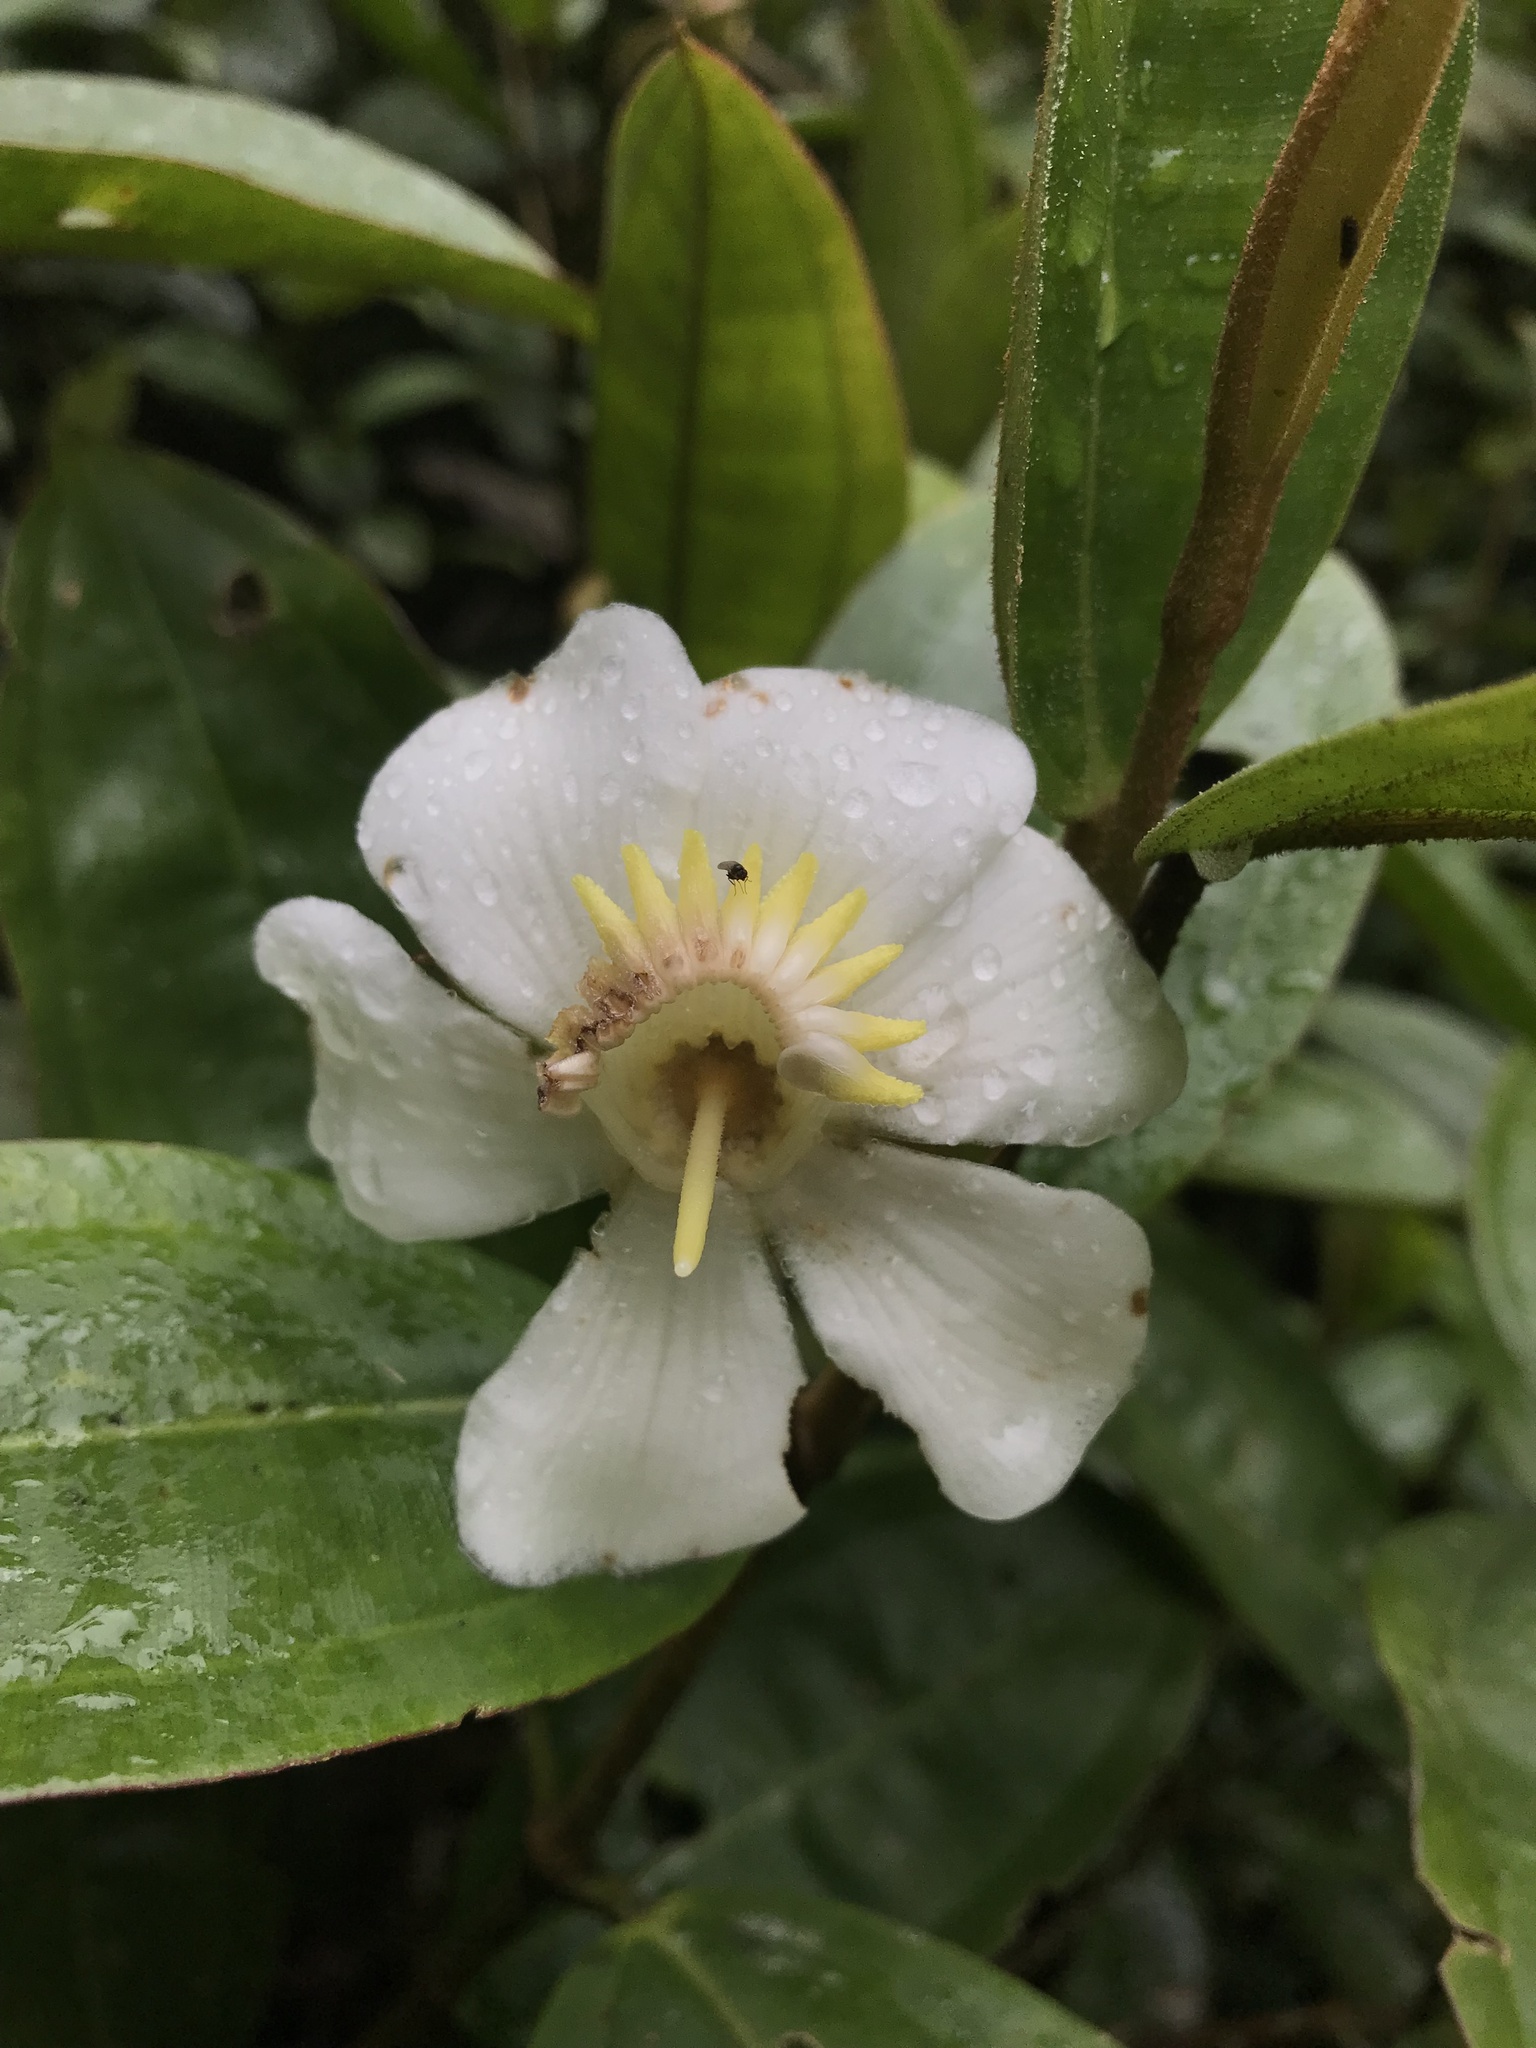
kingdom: Plantae
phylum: Tracheophyta
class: Magnoliopsida
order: Myrtales
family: Melastomataceae
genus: Blakea
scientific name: Blakea granatensis
